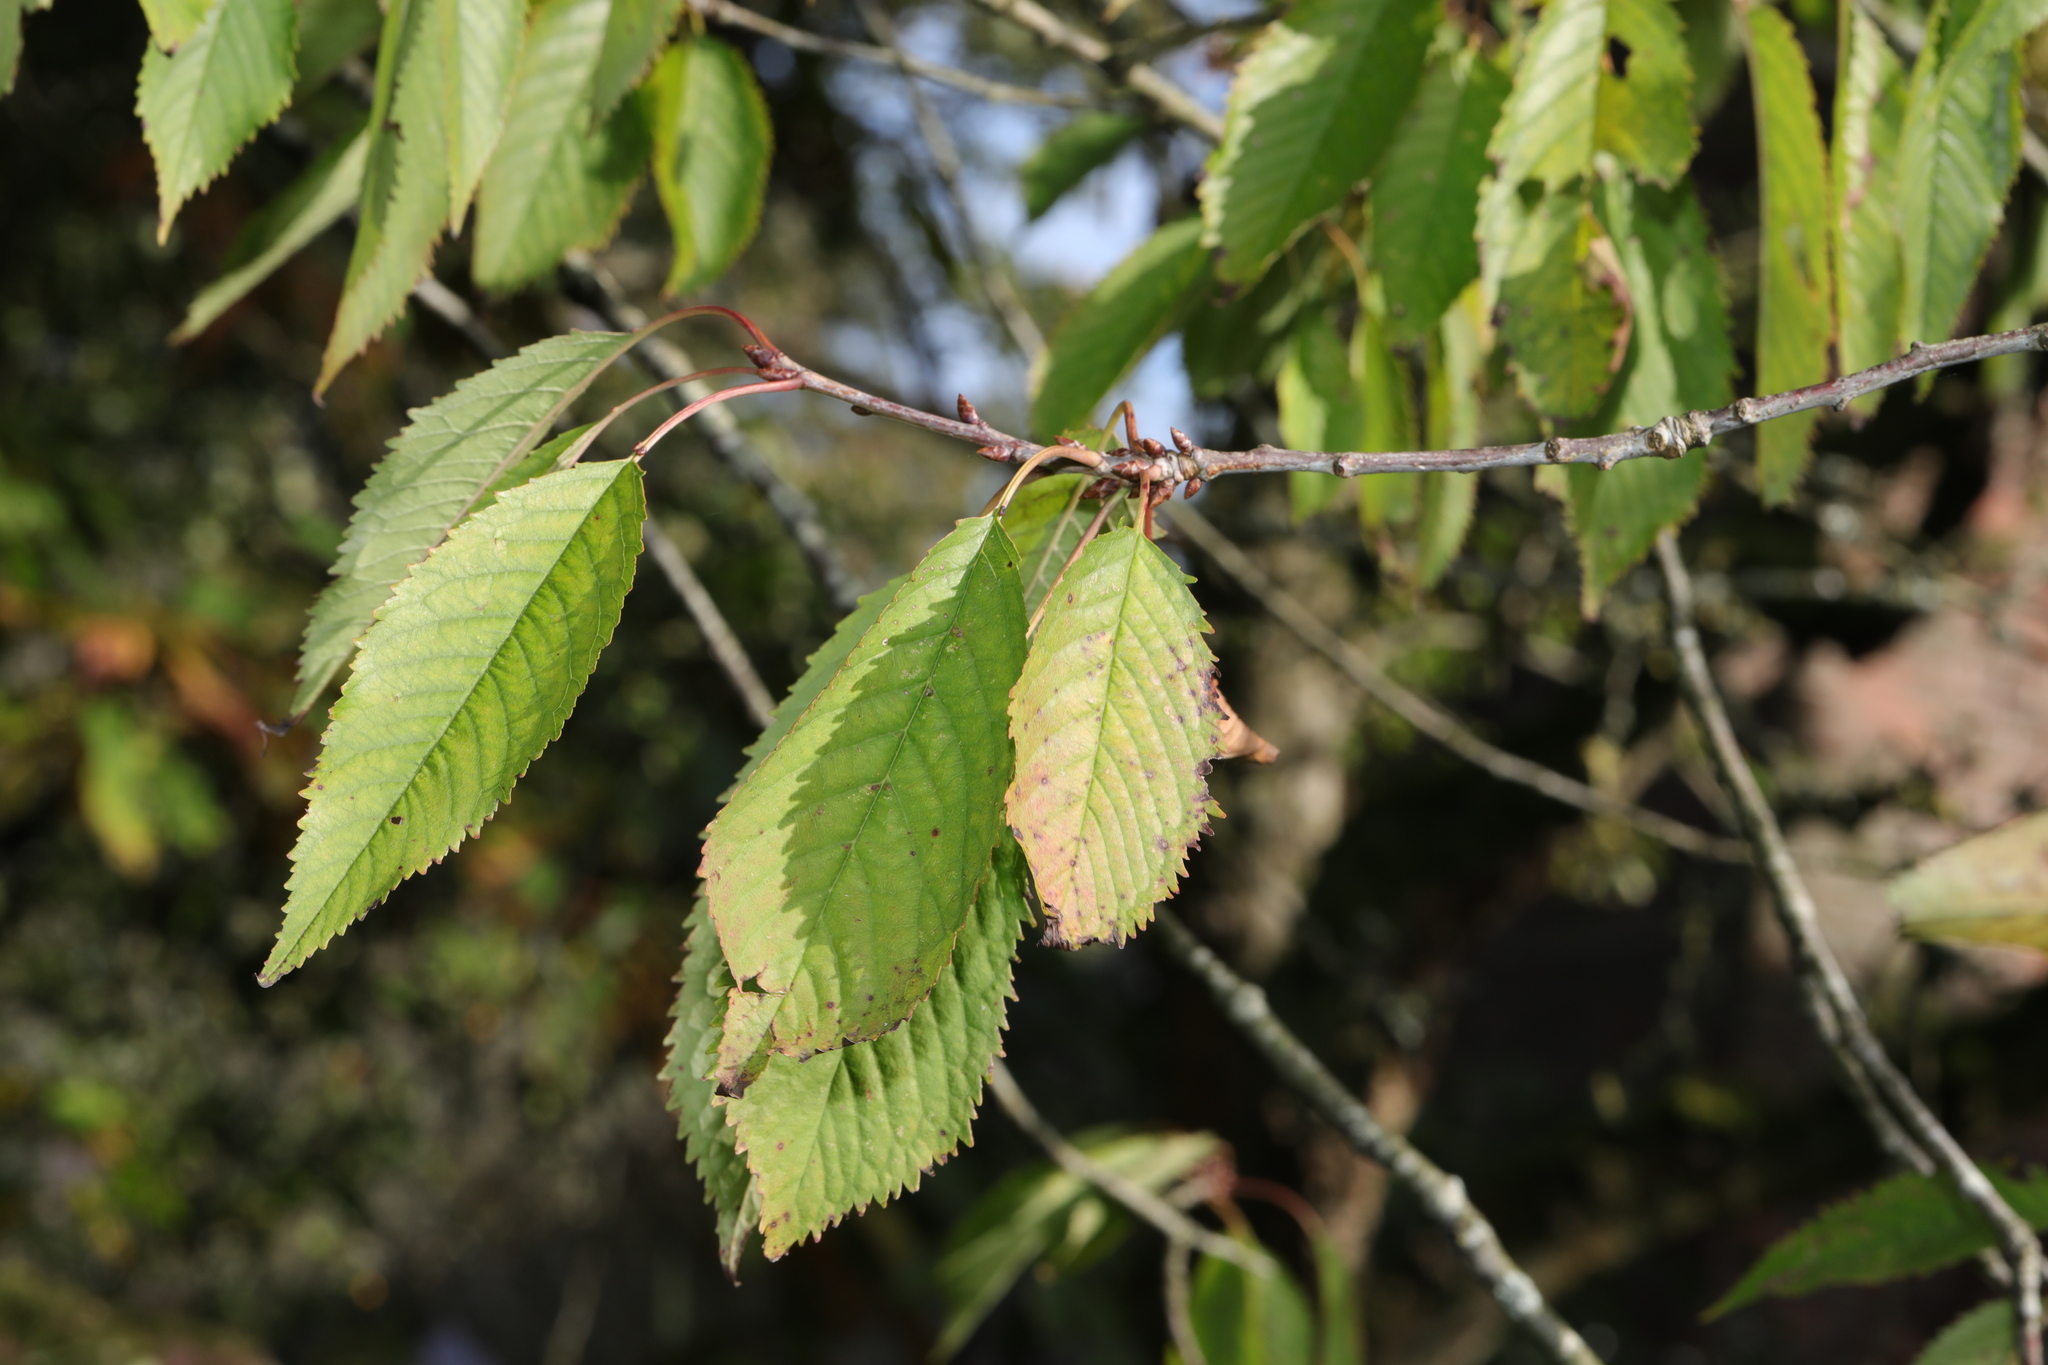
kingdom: Plantae
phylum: Tracheophyta
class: Magnoliopsida
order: Rosales
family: Rosaceae
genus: Prunus
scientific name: Prunus avium
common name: Sweet cherry
